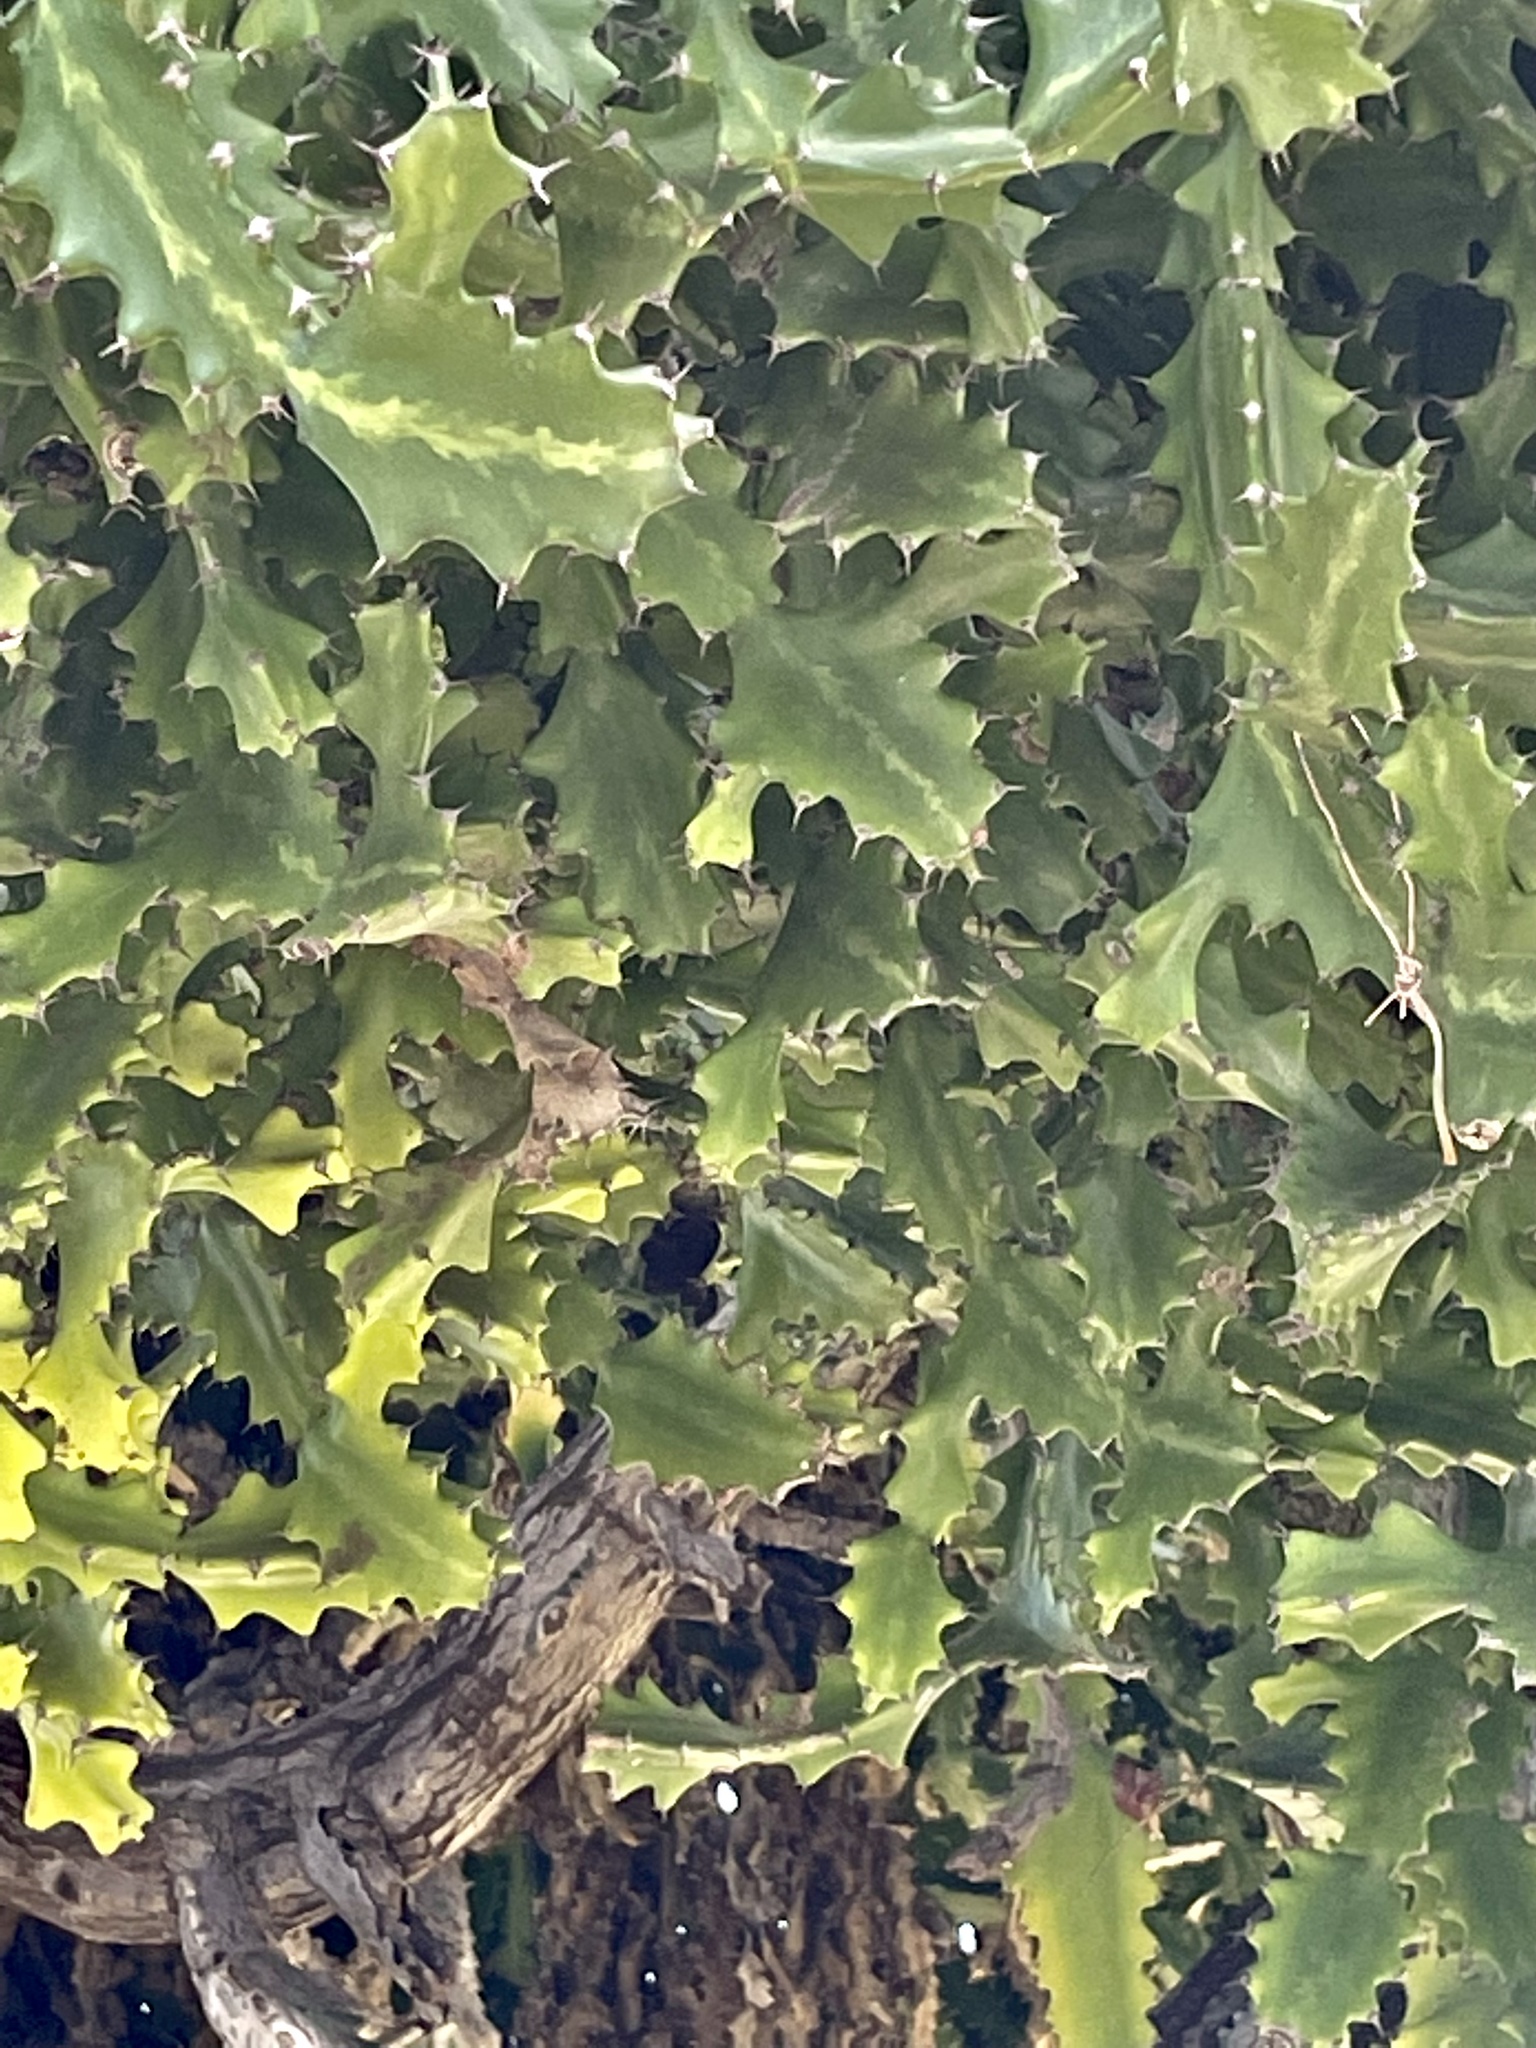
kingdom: Plantae
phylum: Tracheophyta
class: Magnoliopsida
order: Malpighiales
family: Euphorbiaceae
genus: Euphorbia
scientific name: Euphorbia lactea
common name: Mottled spurge
